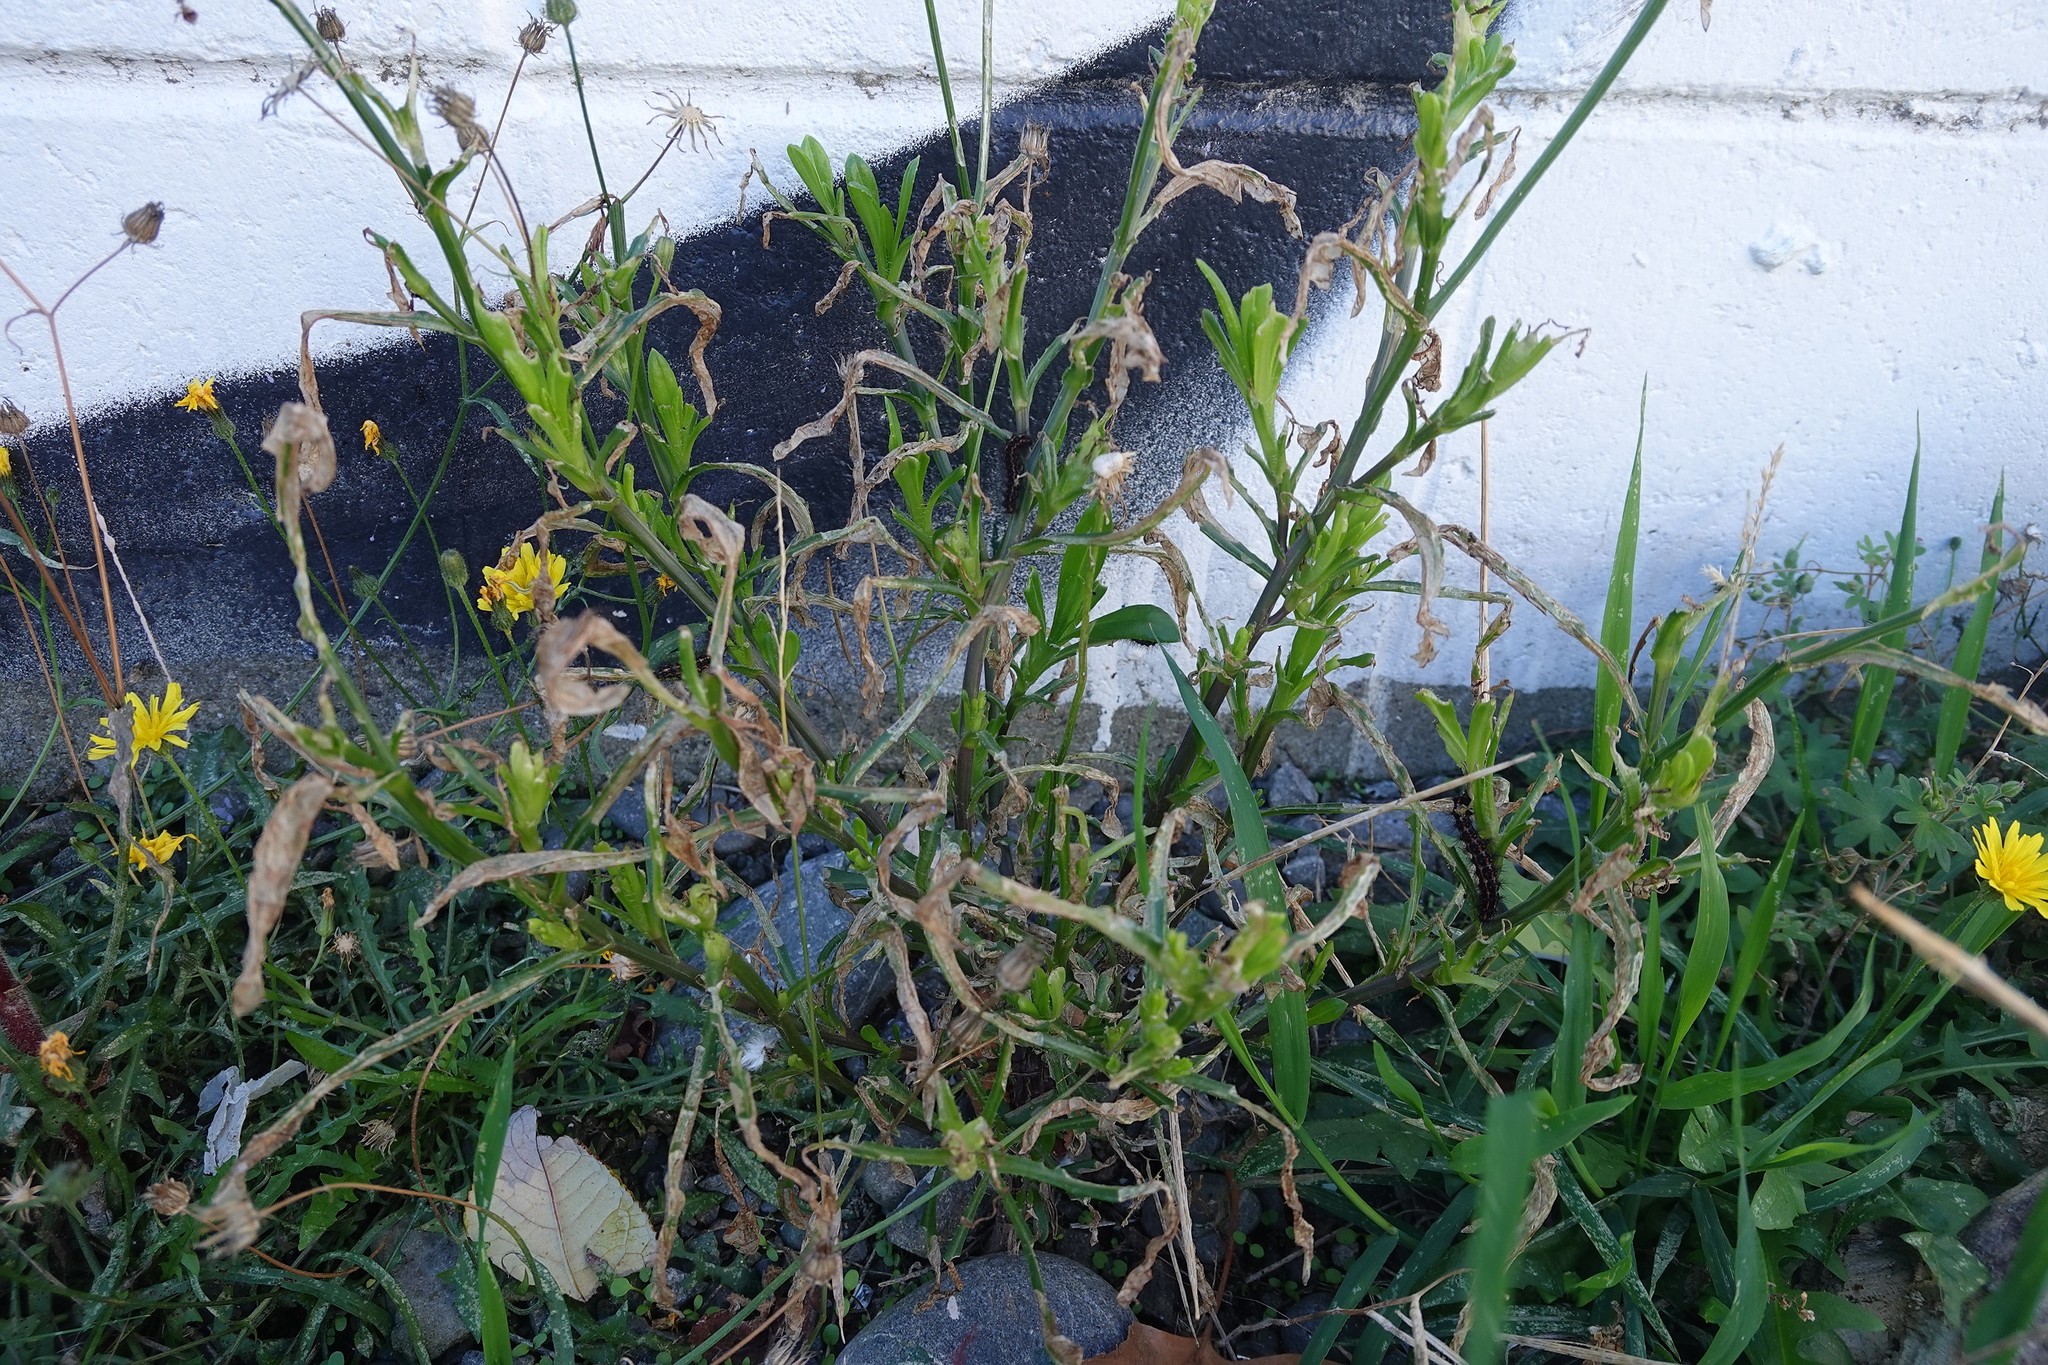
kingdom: Plantae
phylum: Tracheophyta
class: Magnoliopsida
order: Asterales
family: Asteraceae
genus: Senecio
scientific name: Senecio skirrhodon
